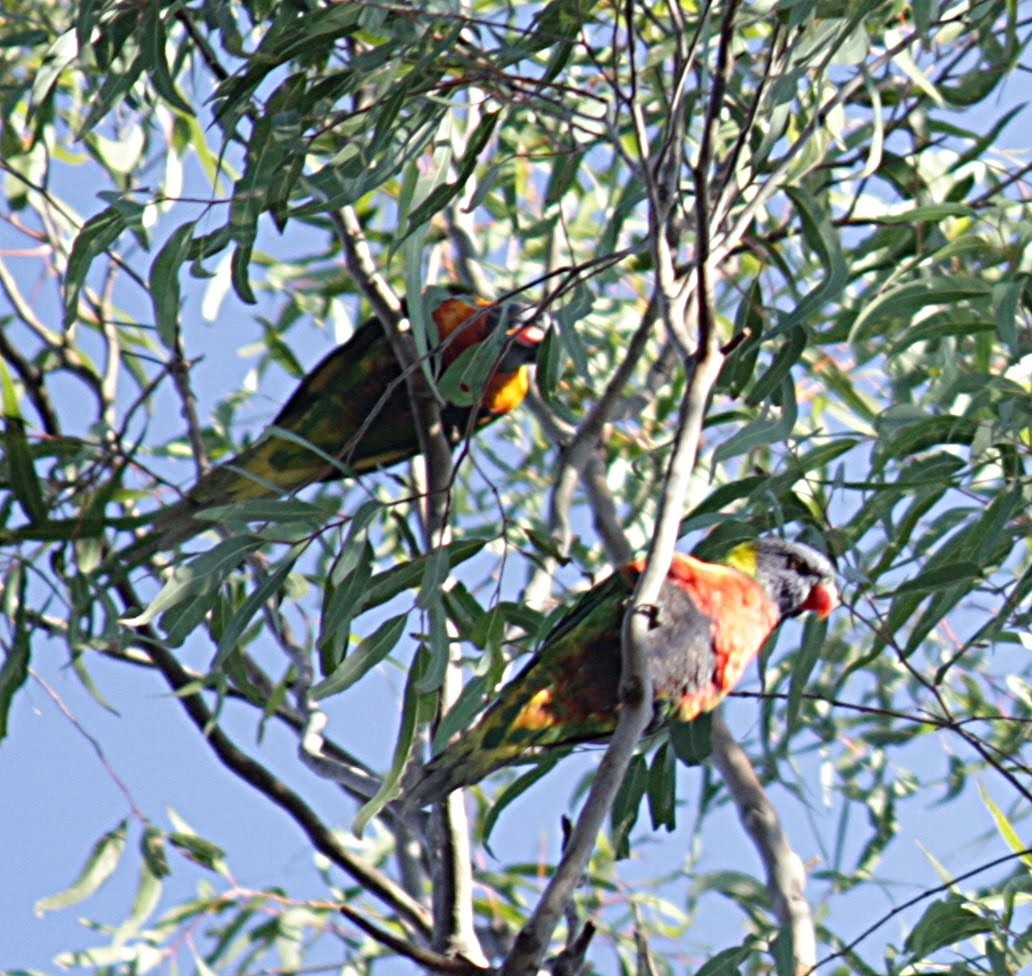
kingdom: Animalia
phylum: Chordata
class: Aves
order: Psittaciformes
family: Psittacidae
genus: Trichoglossus
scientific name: Trichoglossus haematodus
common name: Coconut lorikeet
